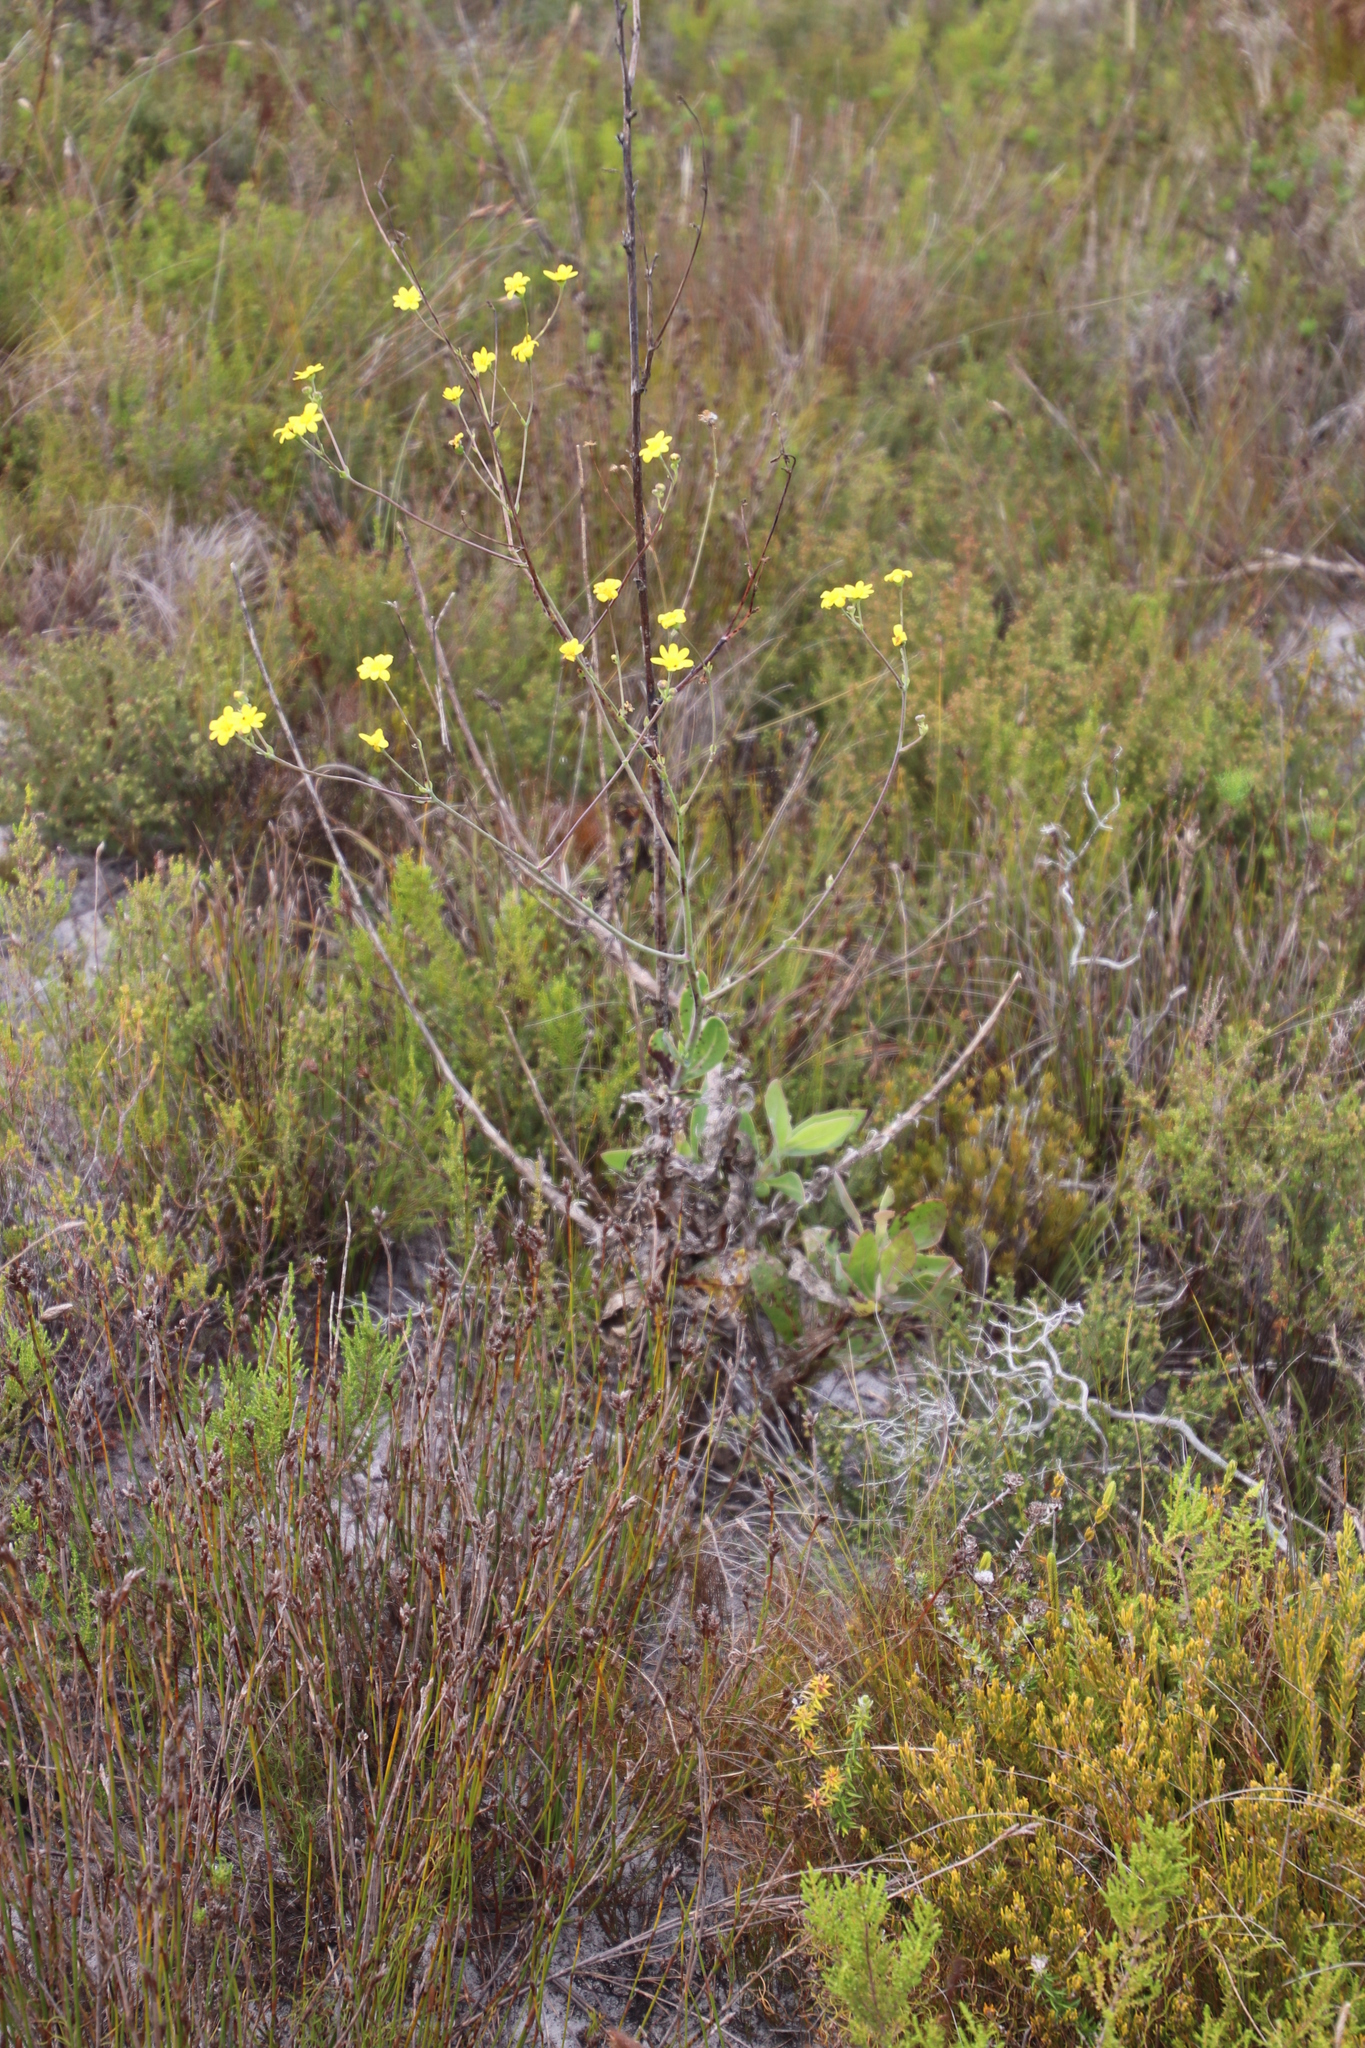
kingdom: Plantae
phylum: Tracheophyta
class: Magnoliopsida
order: Asterales
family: Asteraceae
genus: Othonna
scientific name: Othonna quinquedentata
